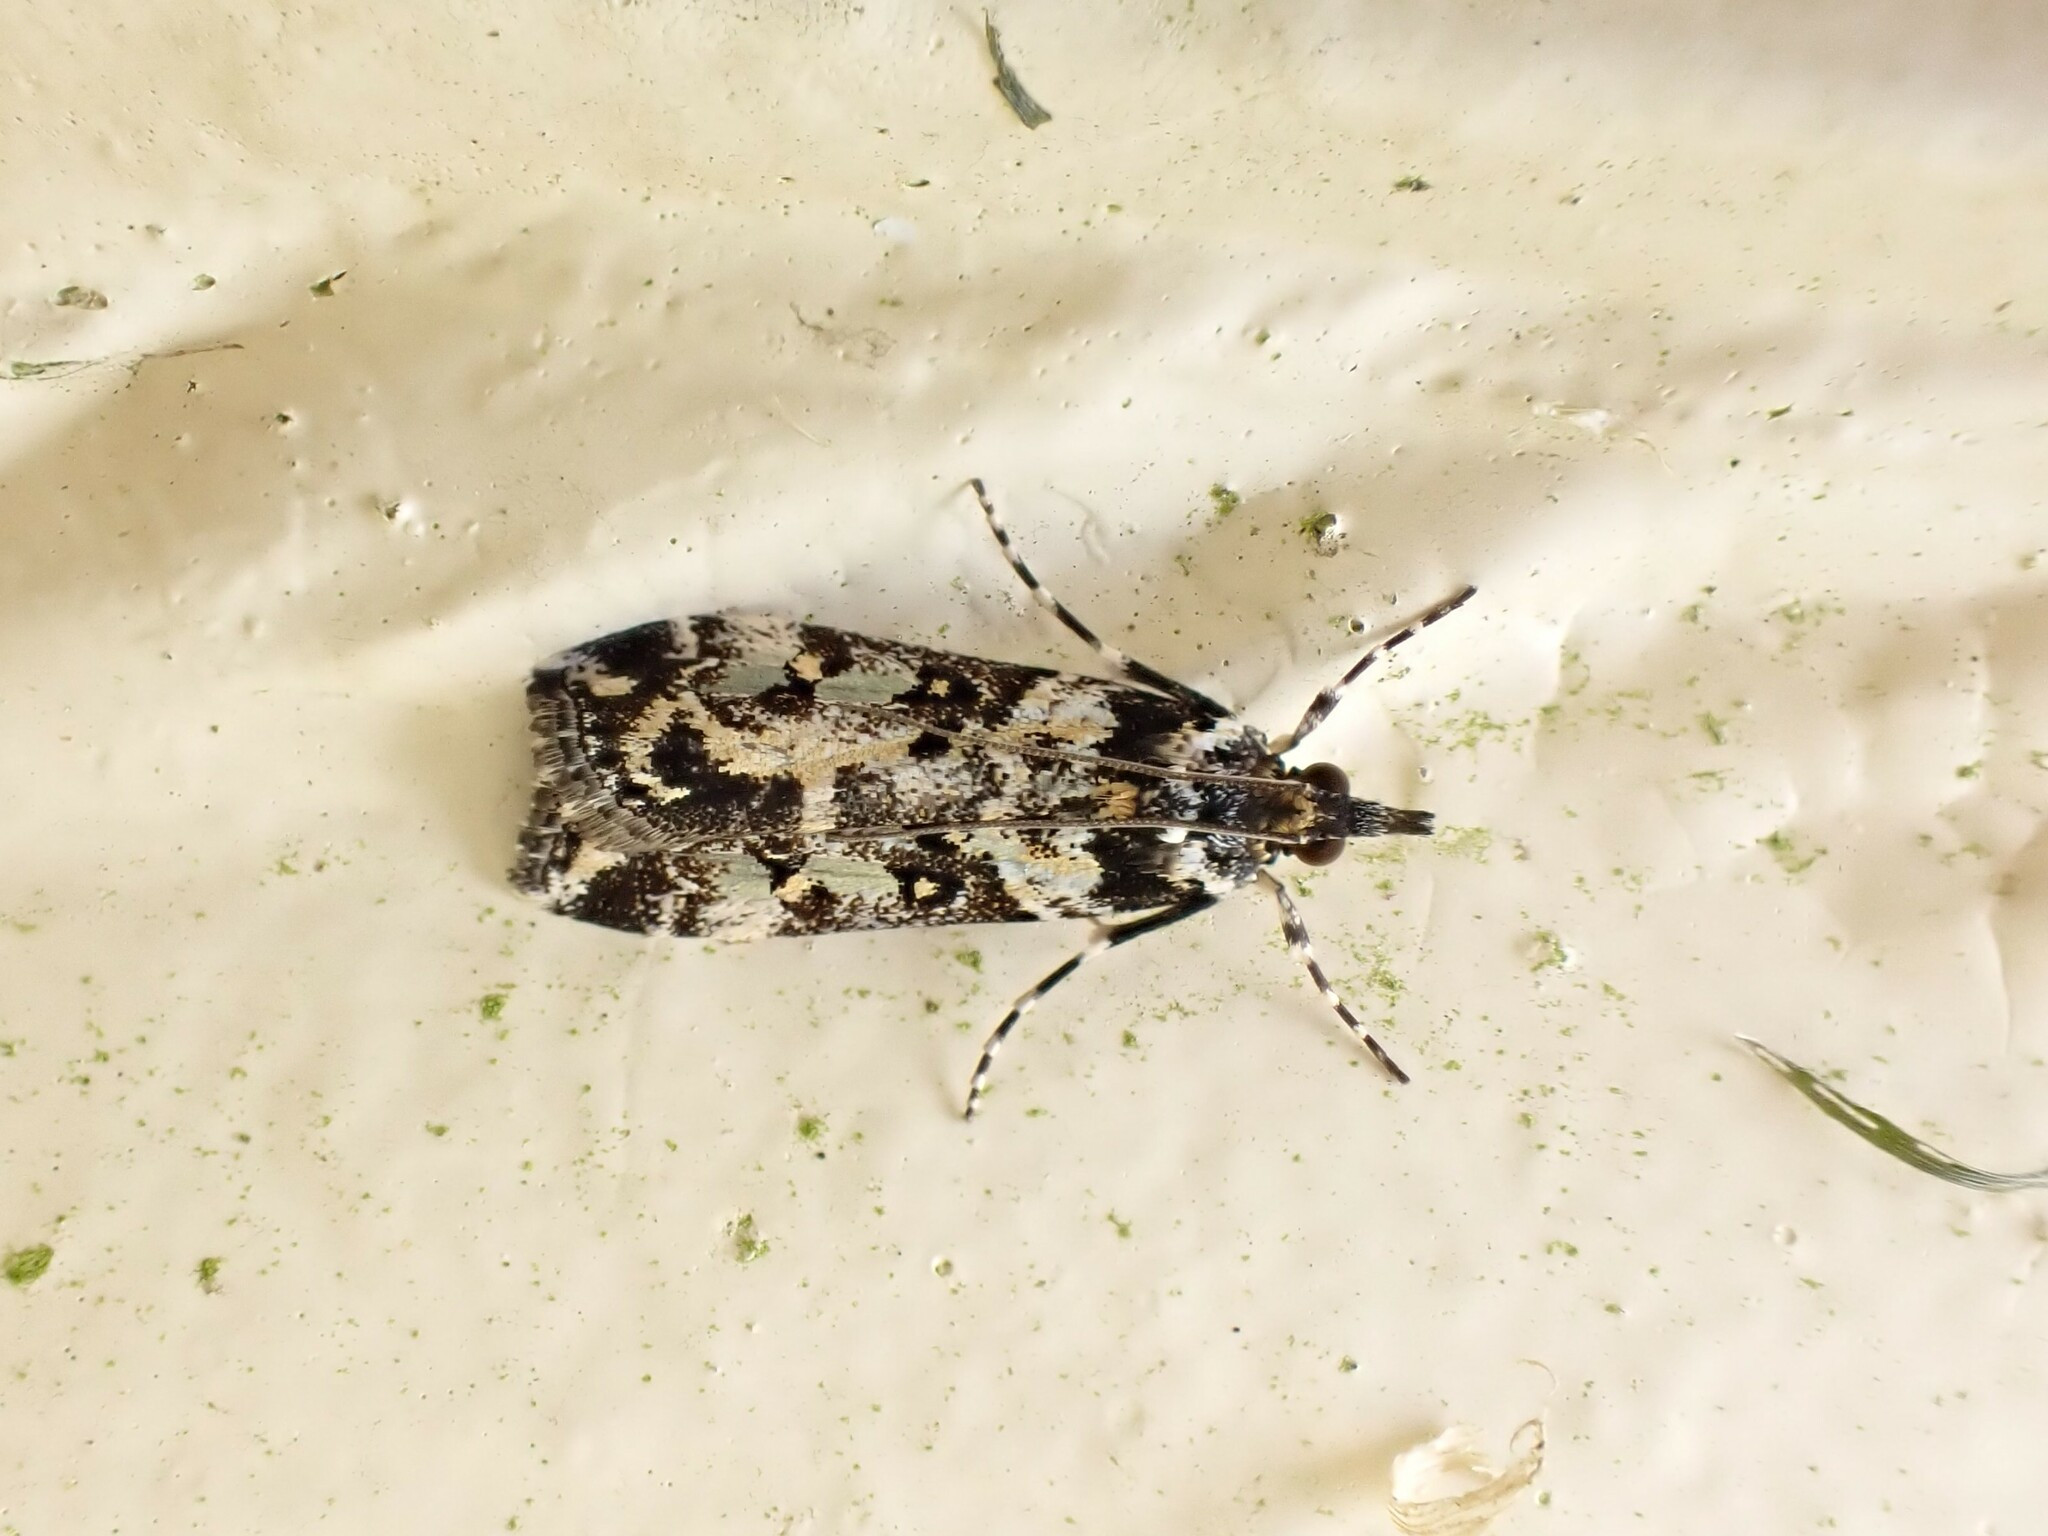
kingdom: Animalia
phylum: Arthropoda
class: Insecta
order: Lepidoptera
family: Crambidae
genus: Eudonia
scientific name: Eudonia diphtheralis
